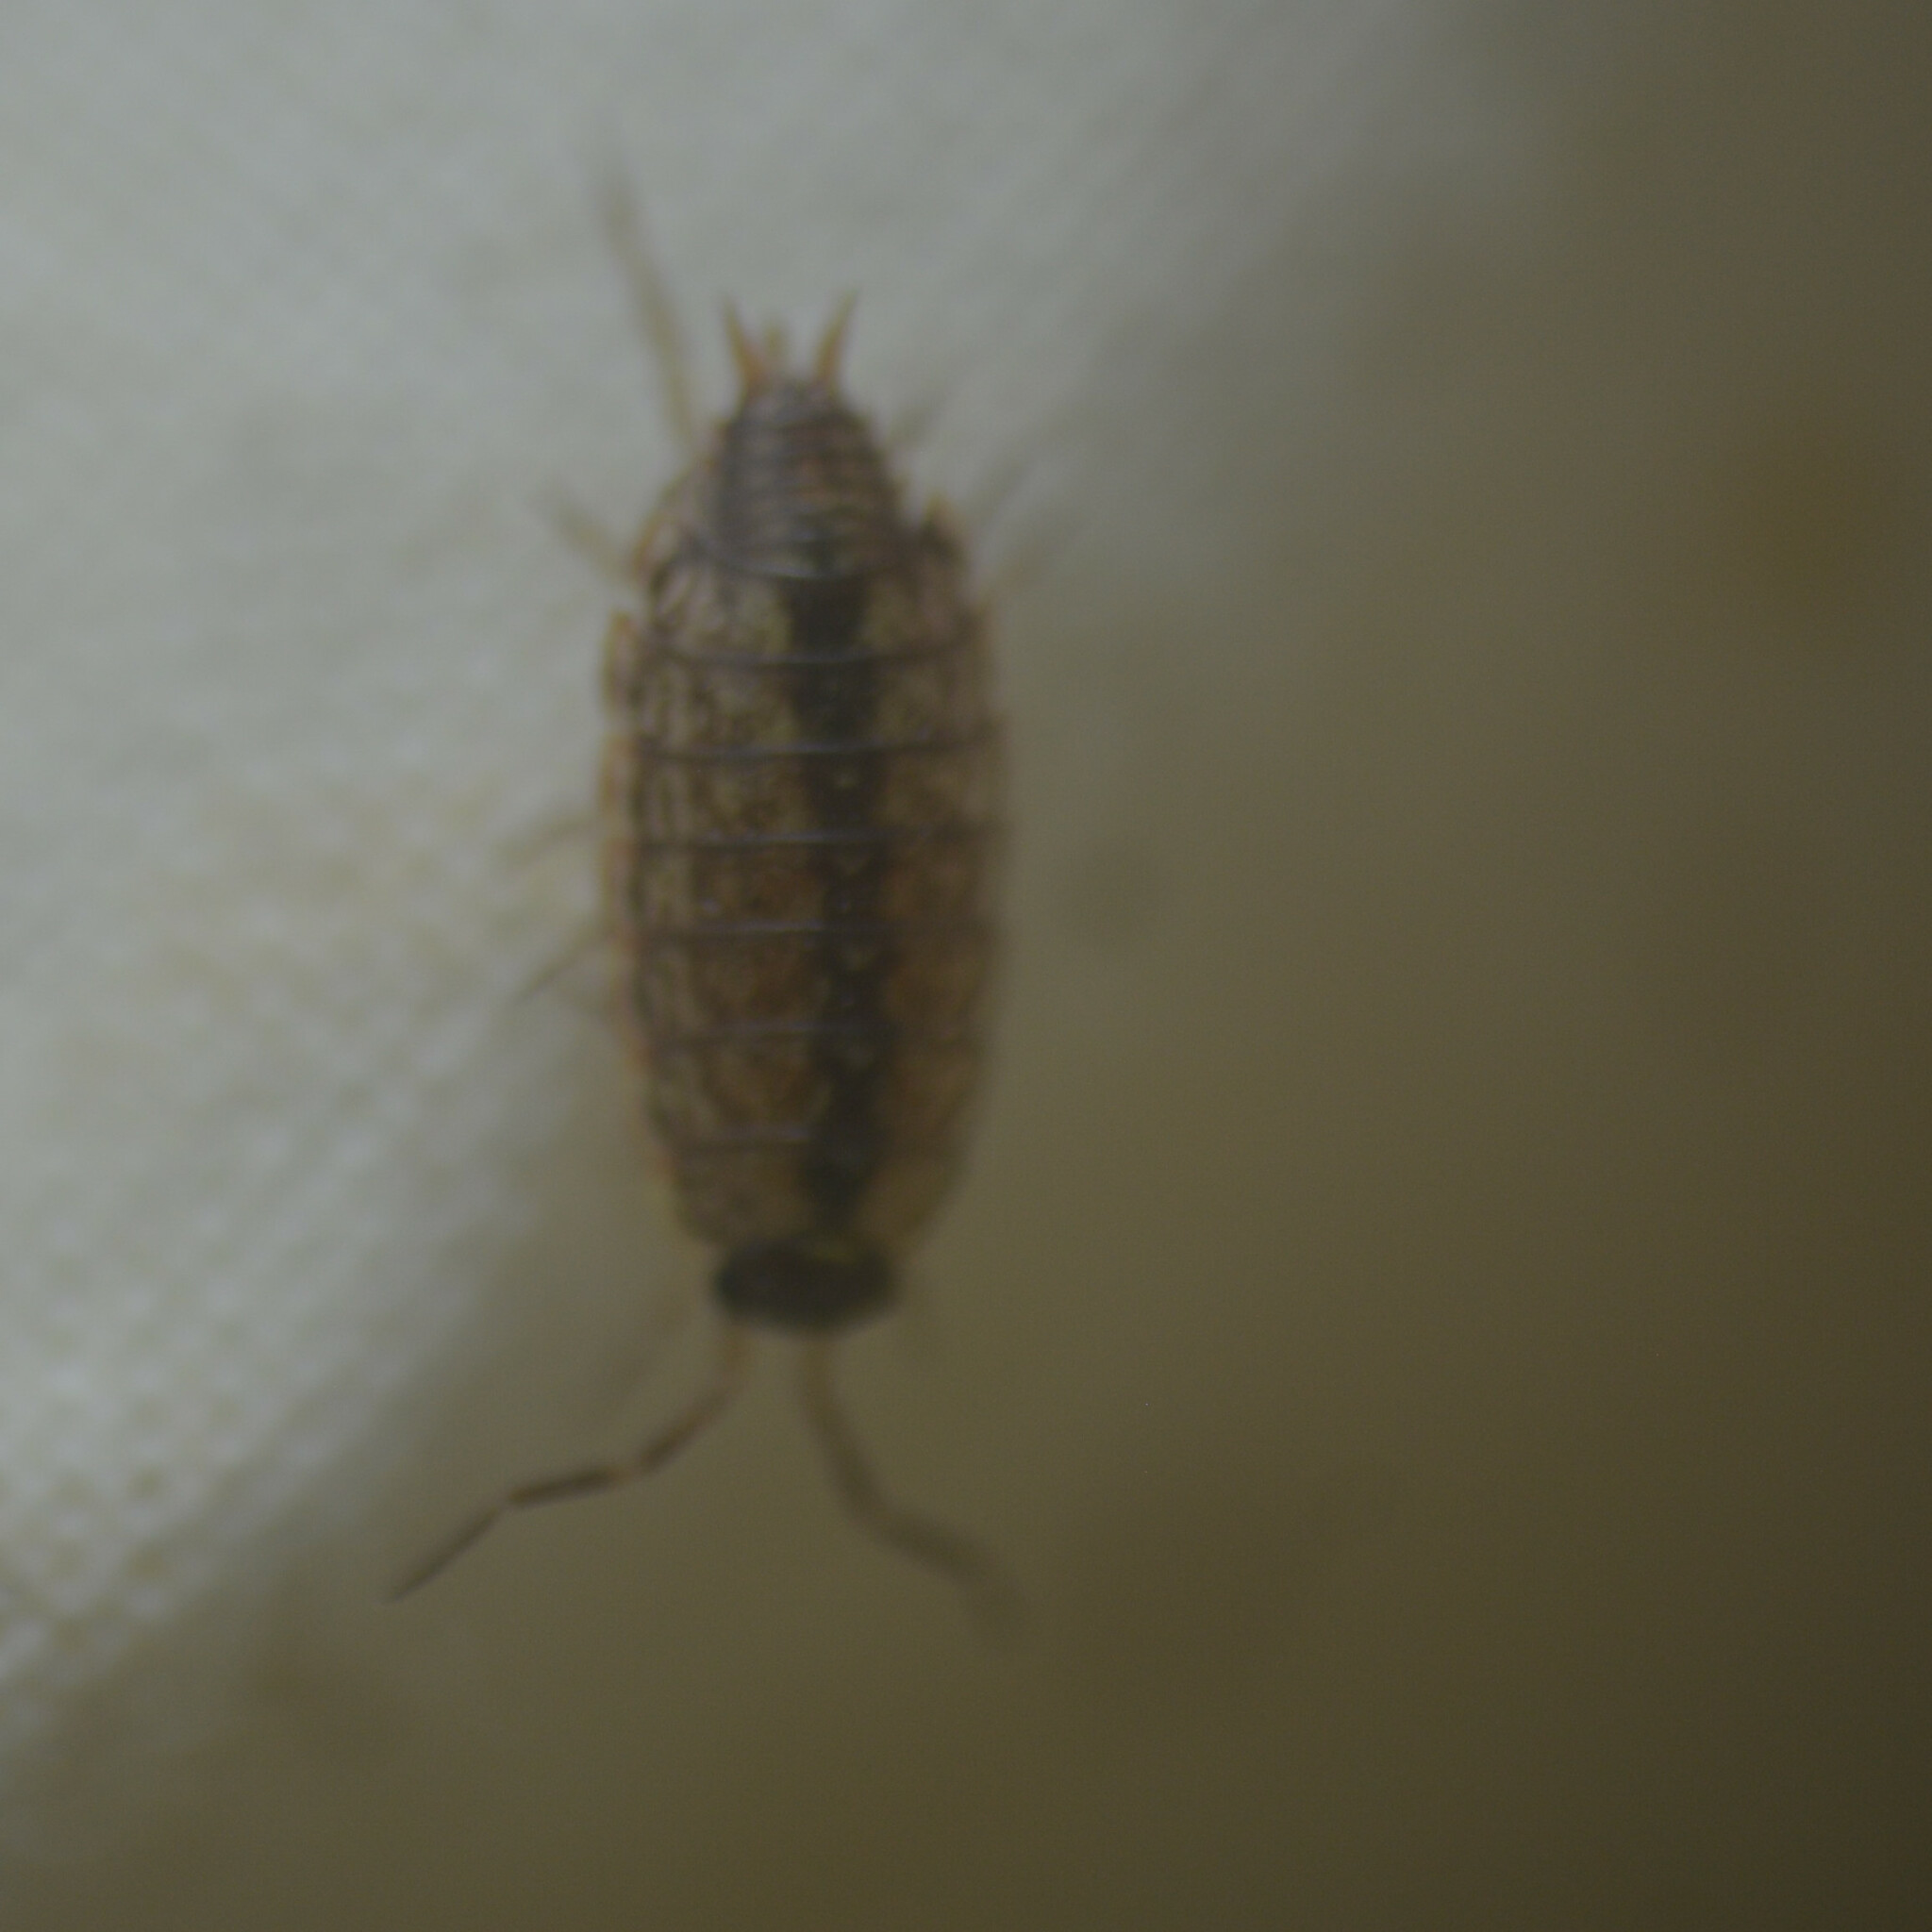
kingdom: Animalia
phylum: Arthropoda
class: Malacostraca
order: Isopoda
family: Philosciidae
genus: Philoscia
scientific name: Philoscia muscorum
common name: Common striped woodlouse
